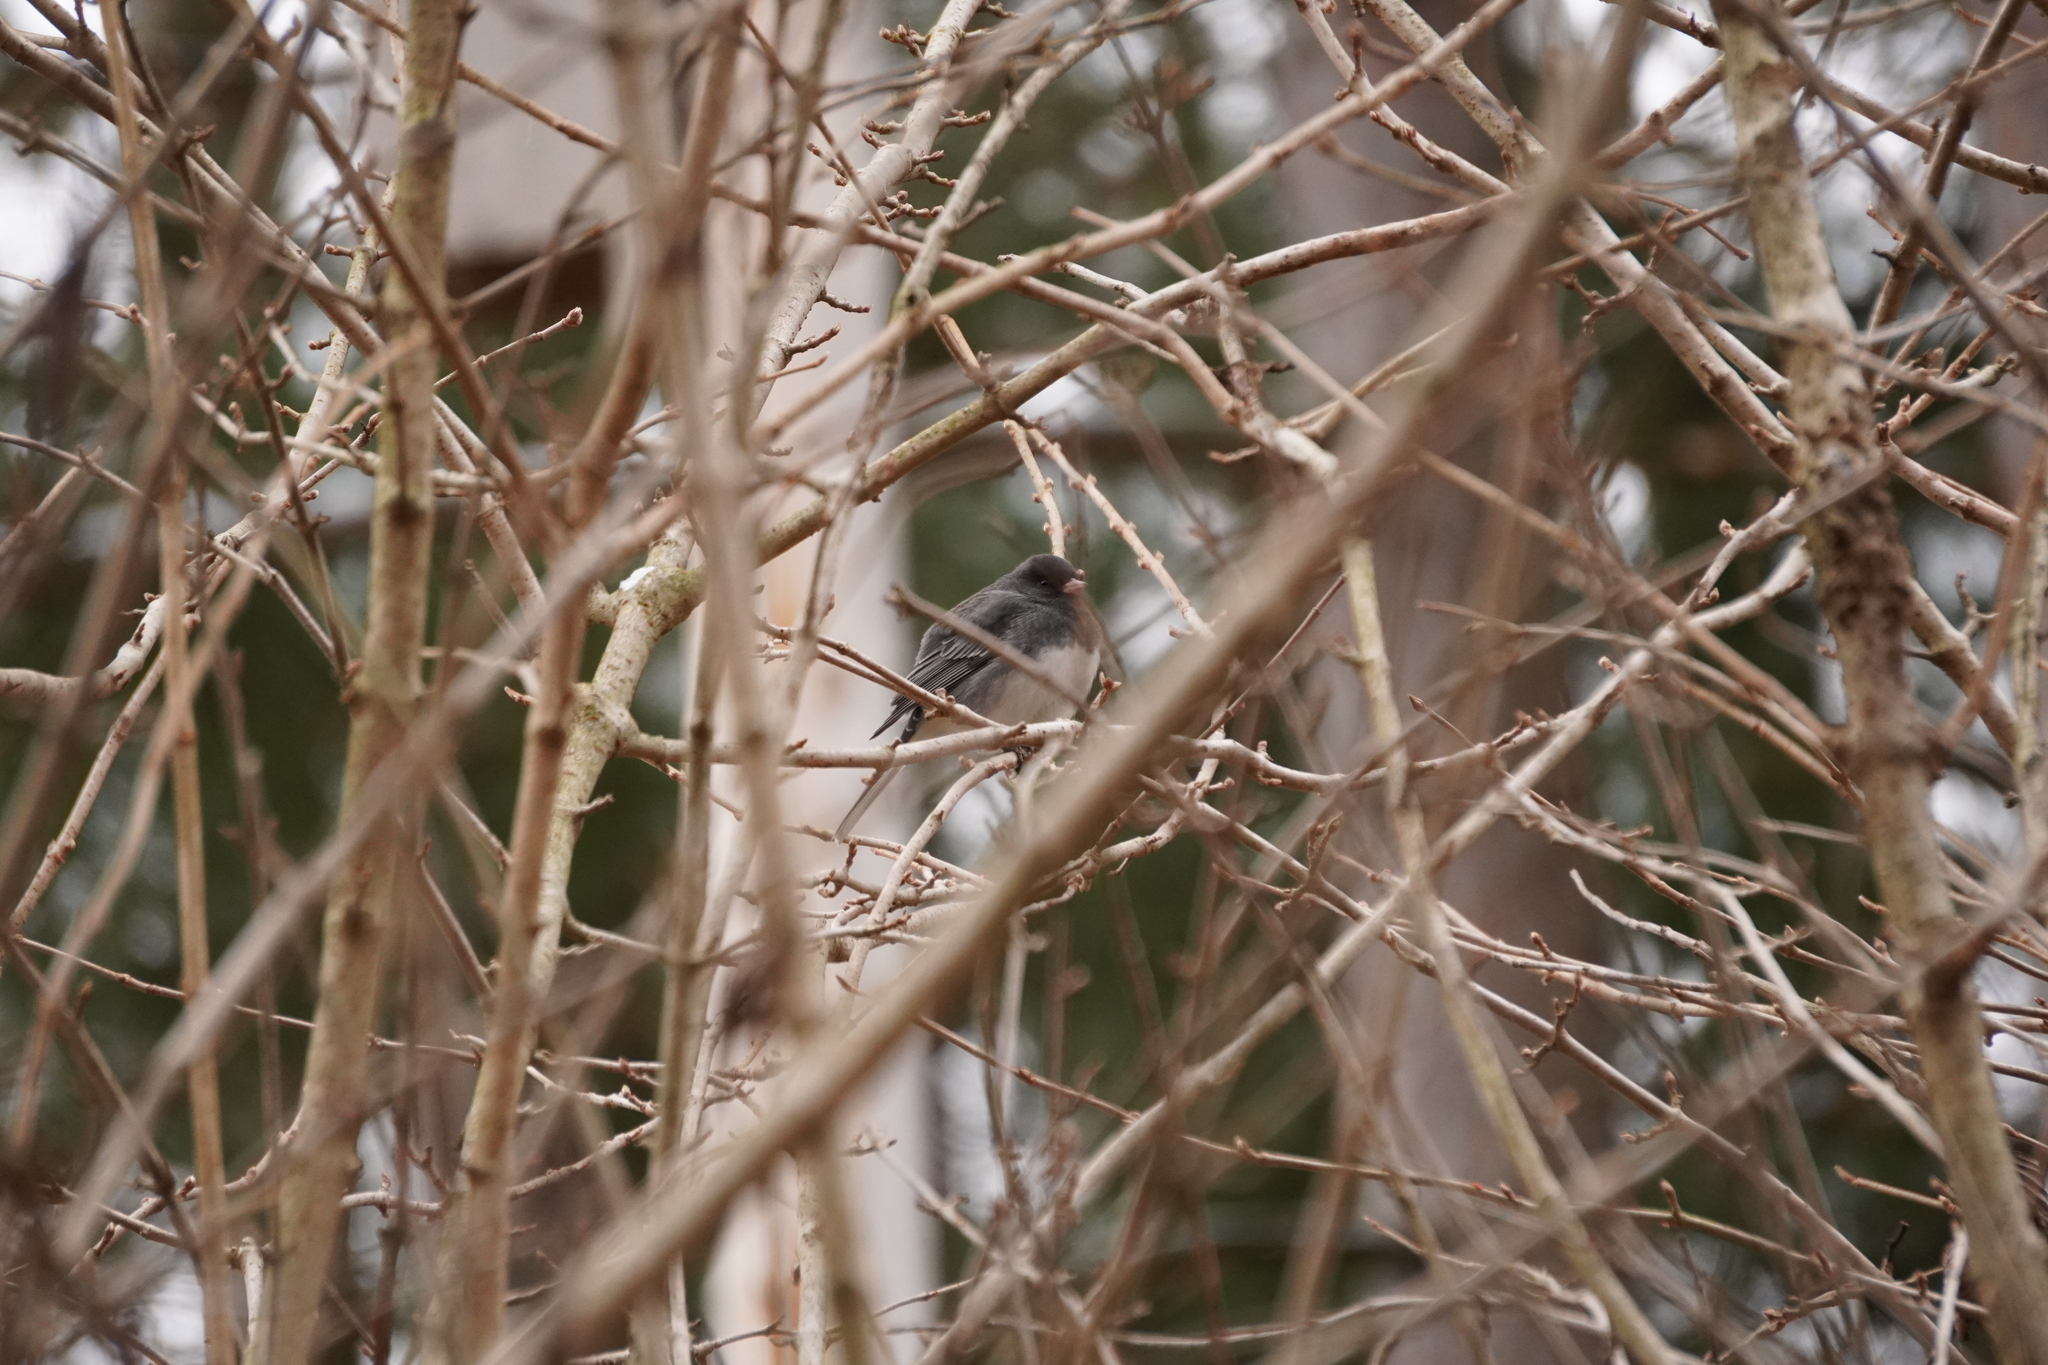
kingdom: Animalia
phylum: Chordata
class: Aves
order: Passeriformes
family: Passerellidae
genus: Junco
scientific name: Junco hyemalis
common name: Dark-eyed junco
